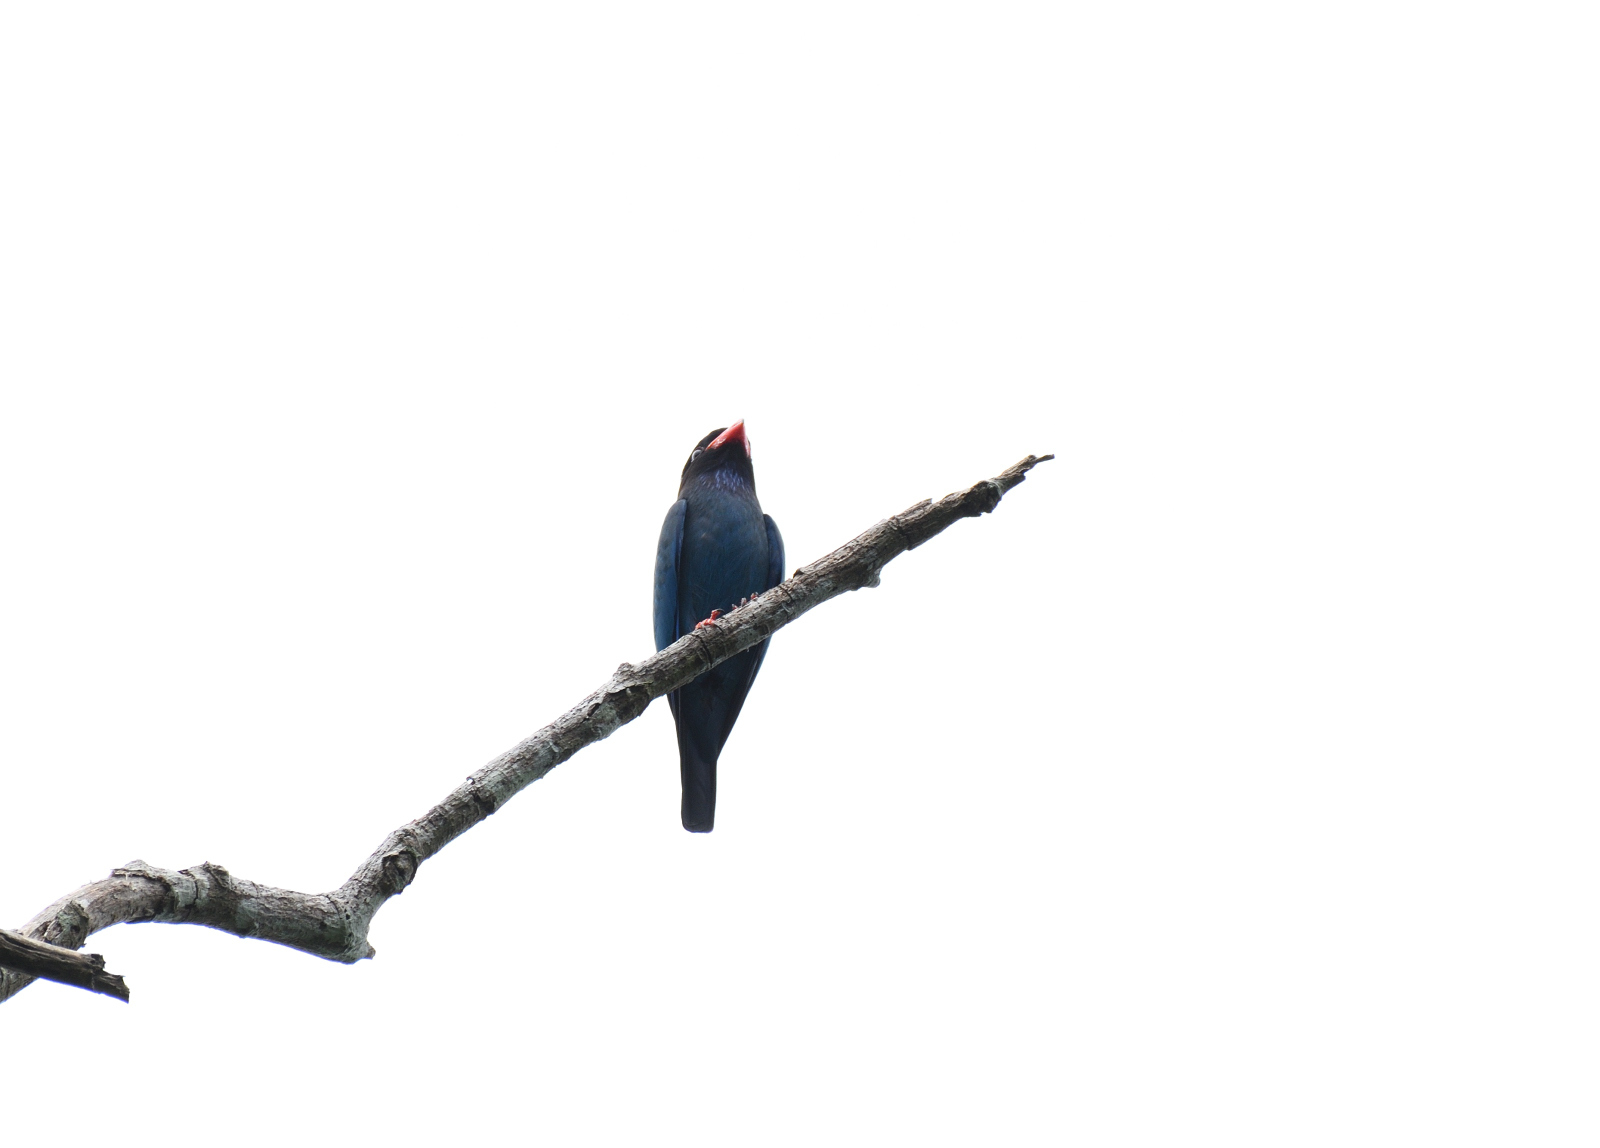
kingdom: Animalia
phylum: Chordata
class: Aves
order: Coraciiformes
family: Coraciidae
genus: Eurystomus
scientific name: Eurystomus orientalis
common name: Oriental dollarbird
